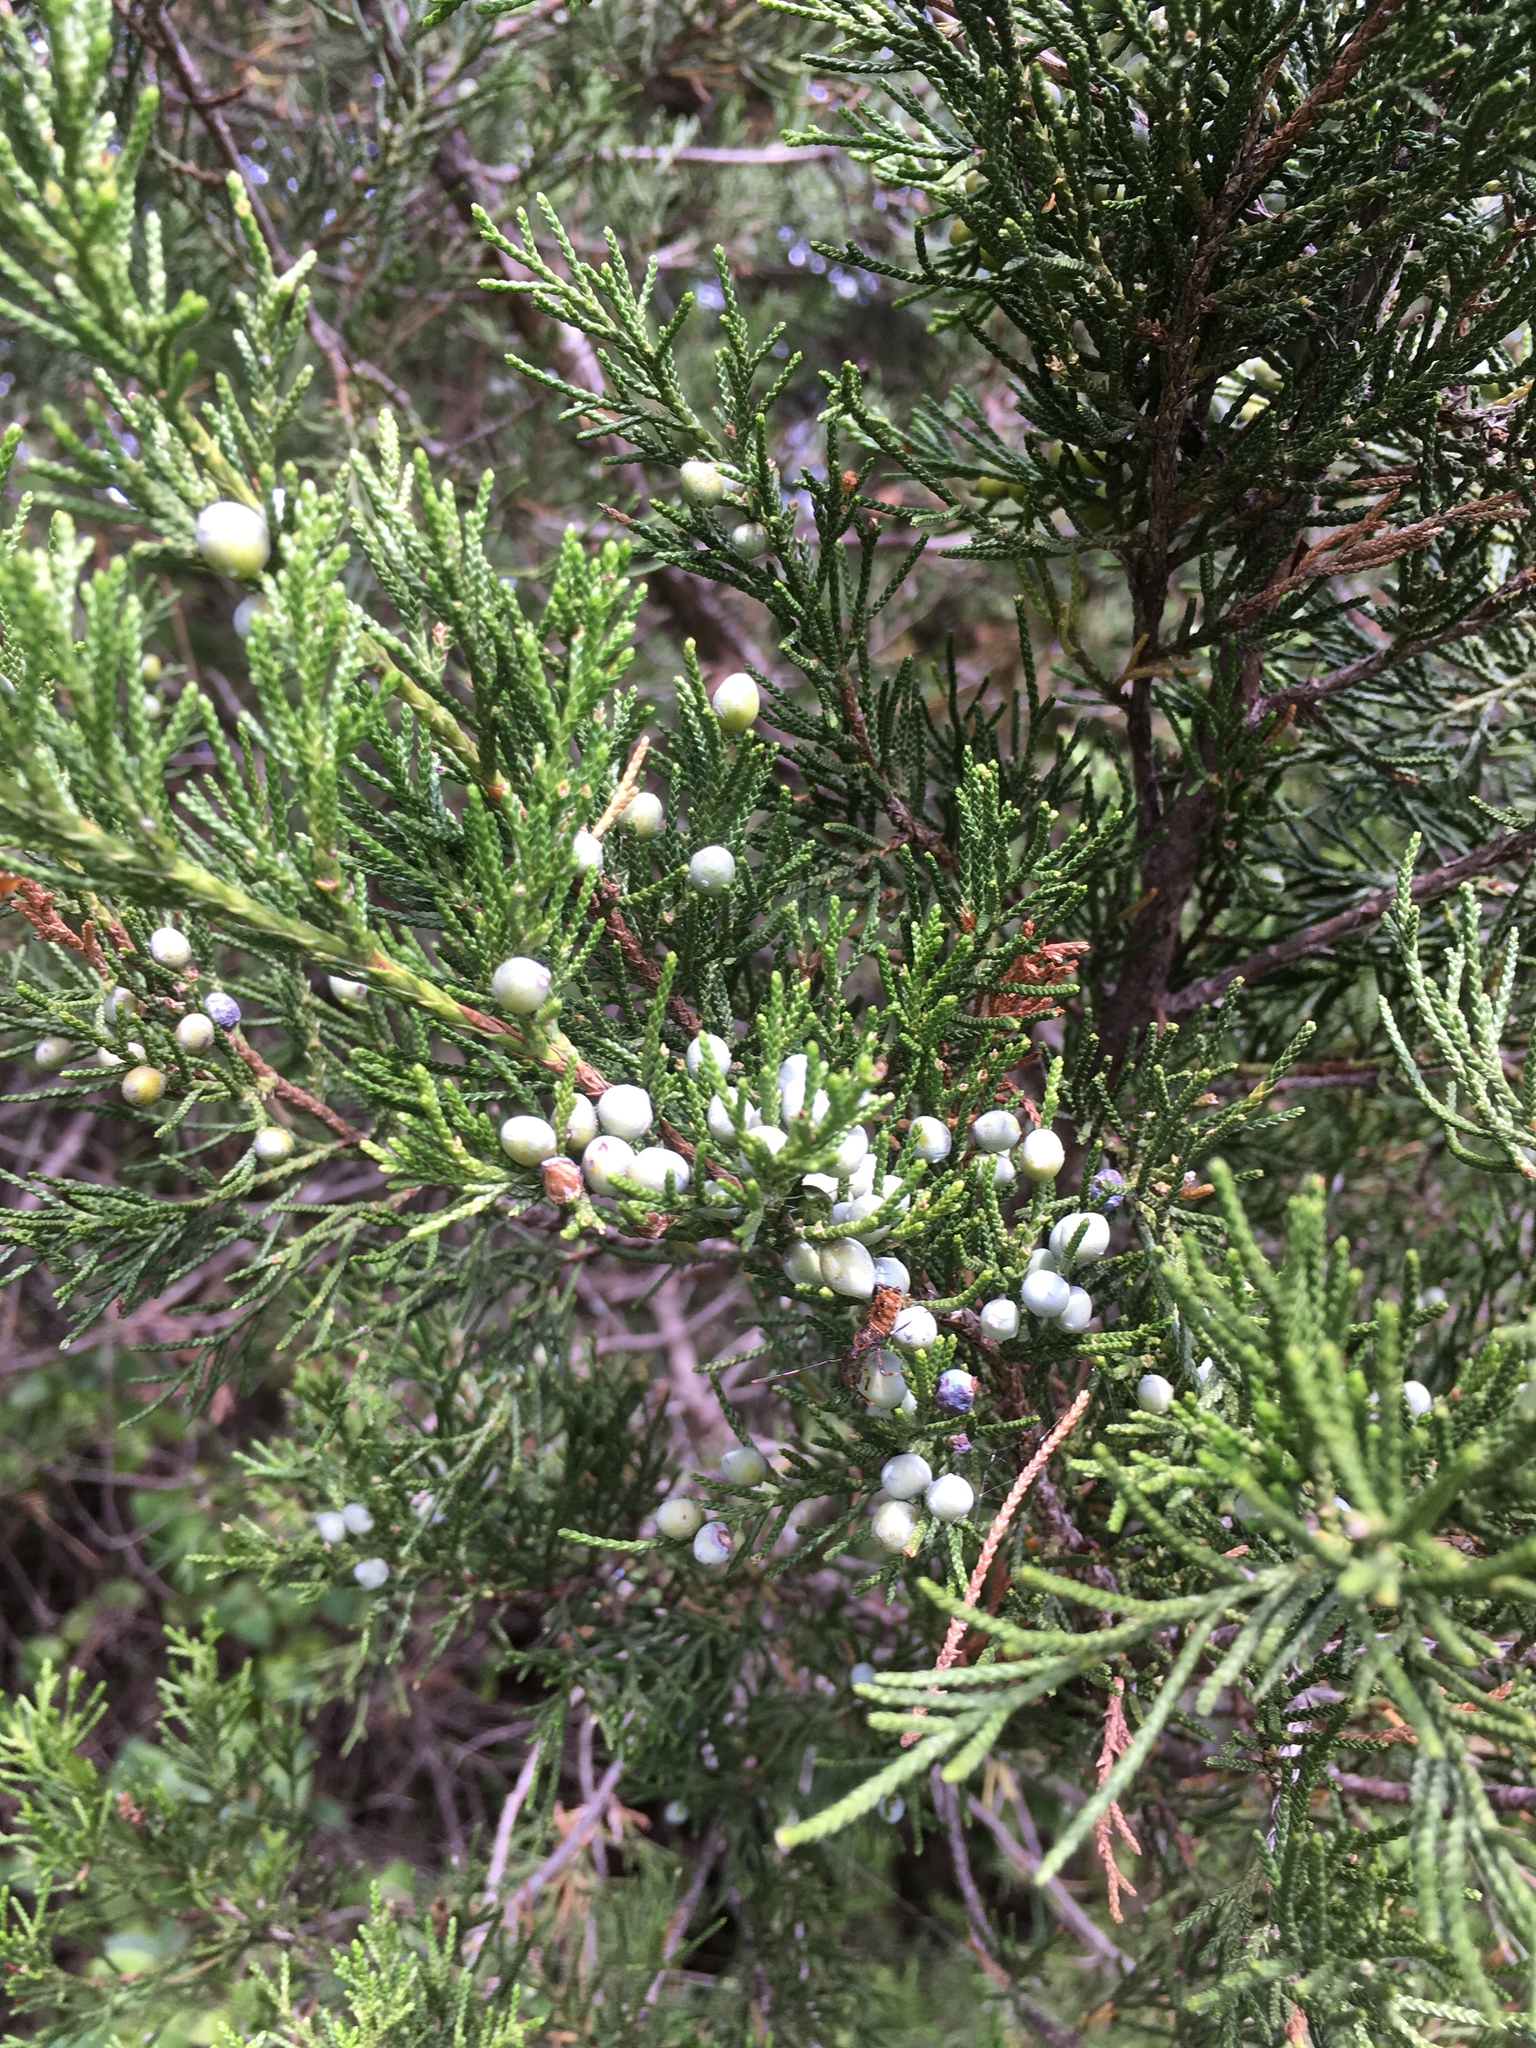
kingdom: Plantae
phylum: Tracheophyta
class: Pinopsida
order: Pinales
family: Cupressaceae
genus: Juniperus
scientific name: Juniperus virginiana
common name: Red juniper
